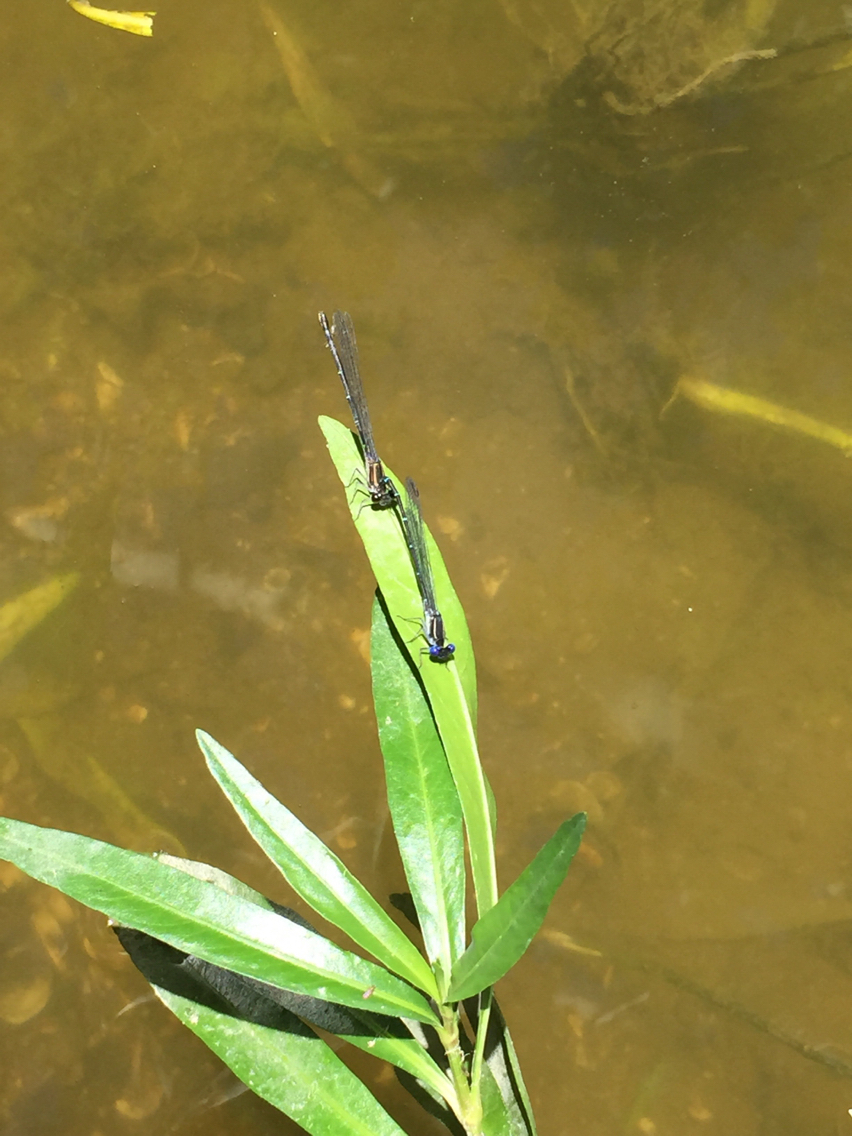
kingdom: Animalia
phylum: Arthropoda
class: Insecta
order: Odonata
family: Coenagrionidae
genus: Argia
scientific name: Argia translata
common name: Dusky dancer
